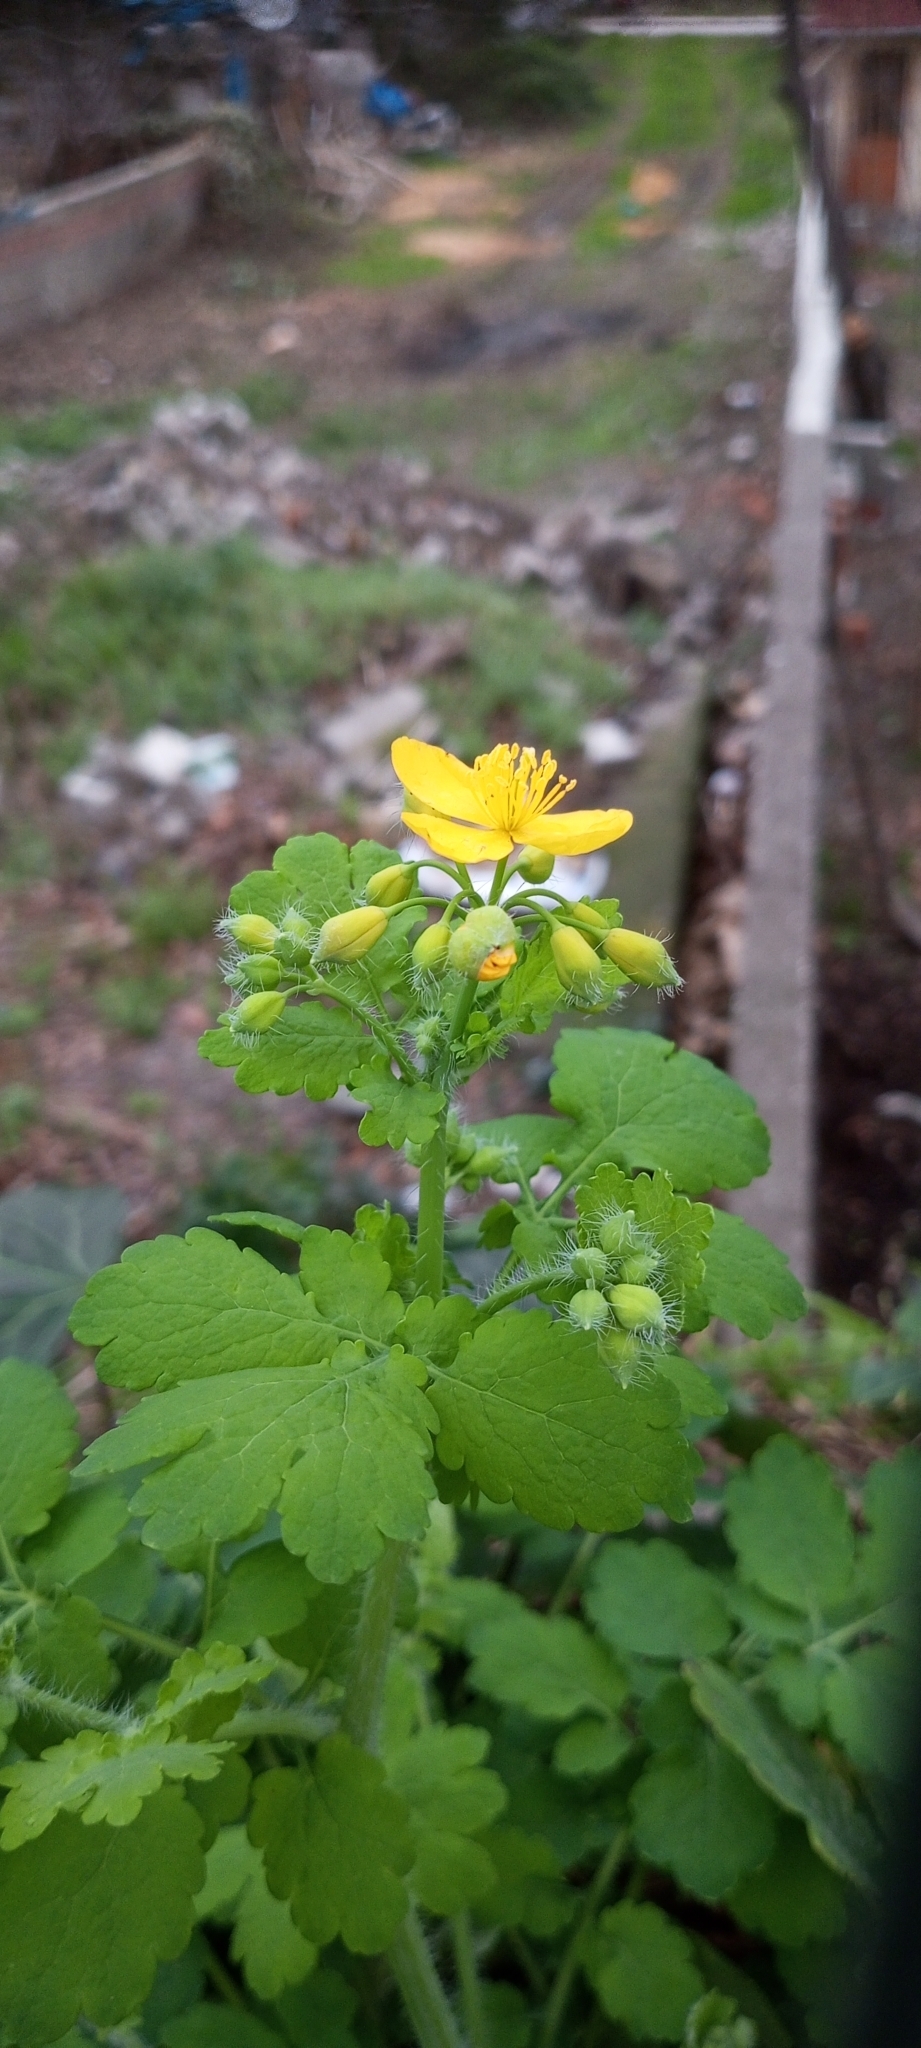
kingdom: Plantae
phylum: Tracheophyta
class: Magnoliopsida
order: Ranunculales
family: Papaveraceae
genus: Chelidonium
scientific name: Chelidonium majus
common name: Greater celandine
